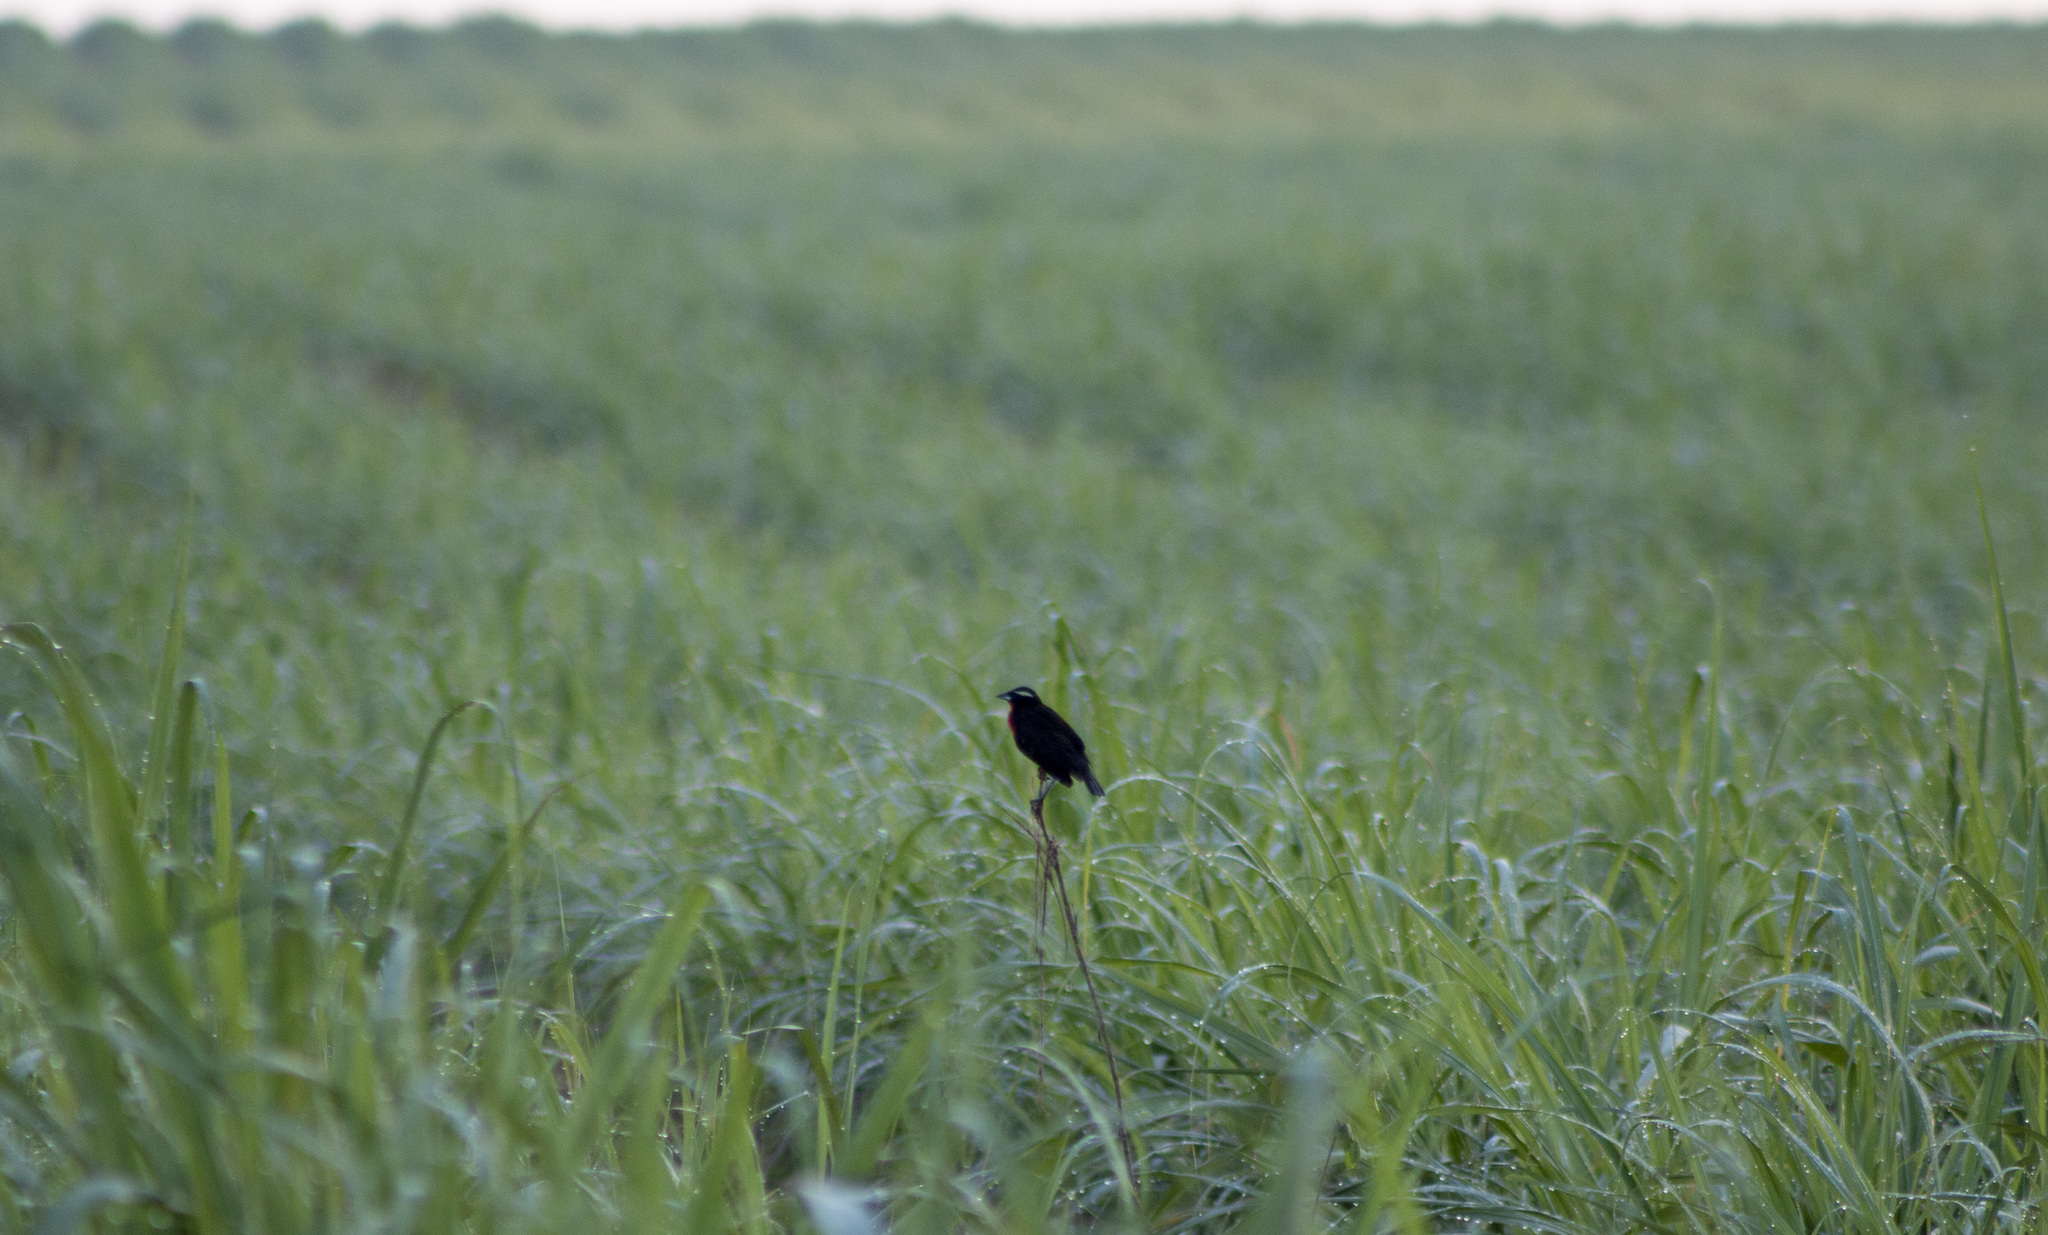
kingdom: Animalia
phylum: Chordata
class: Aves
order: Passeriformes
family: Icteridae
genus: Sturnella
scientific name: Sturnella superciliaris
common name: White-browed blackbird
